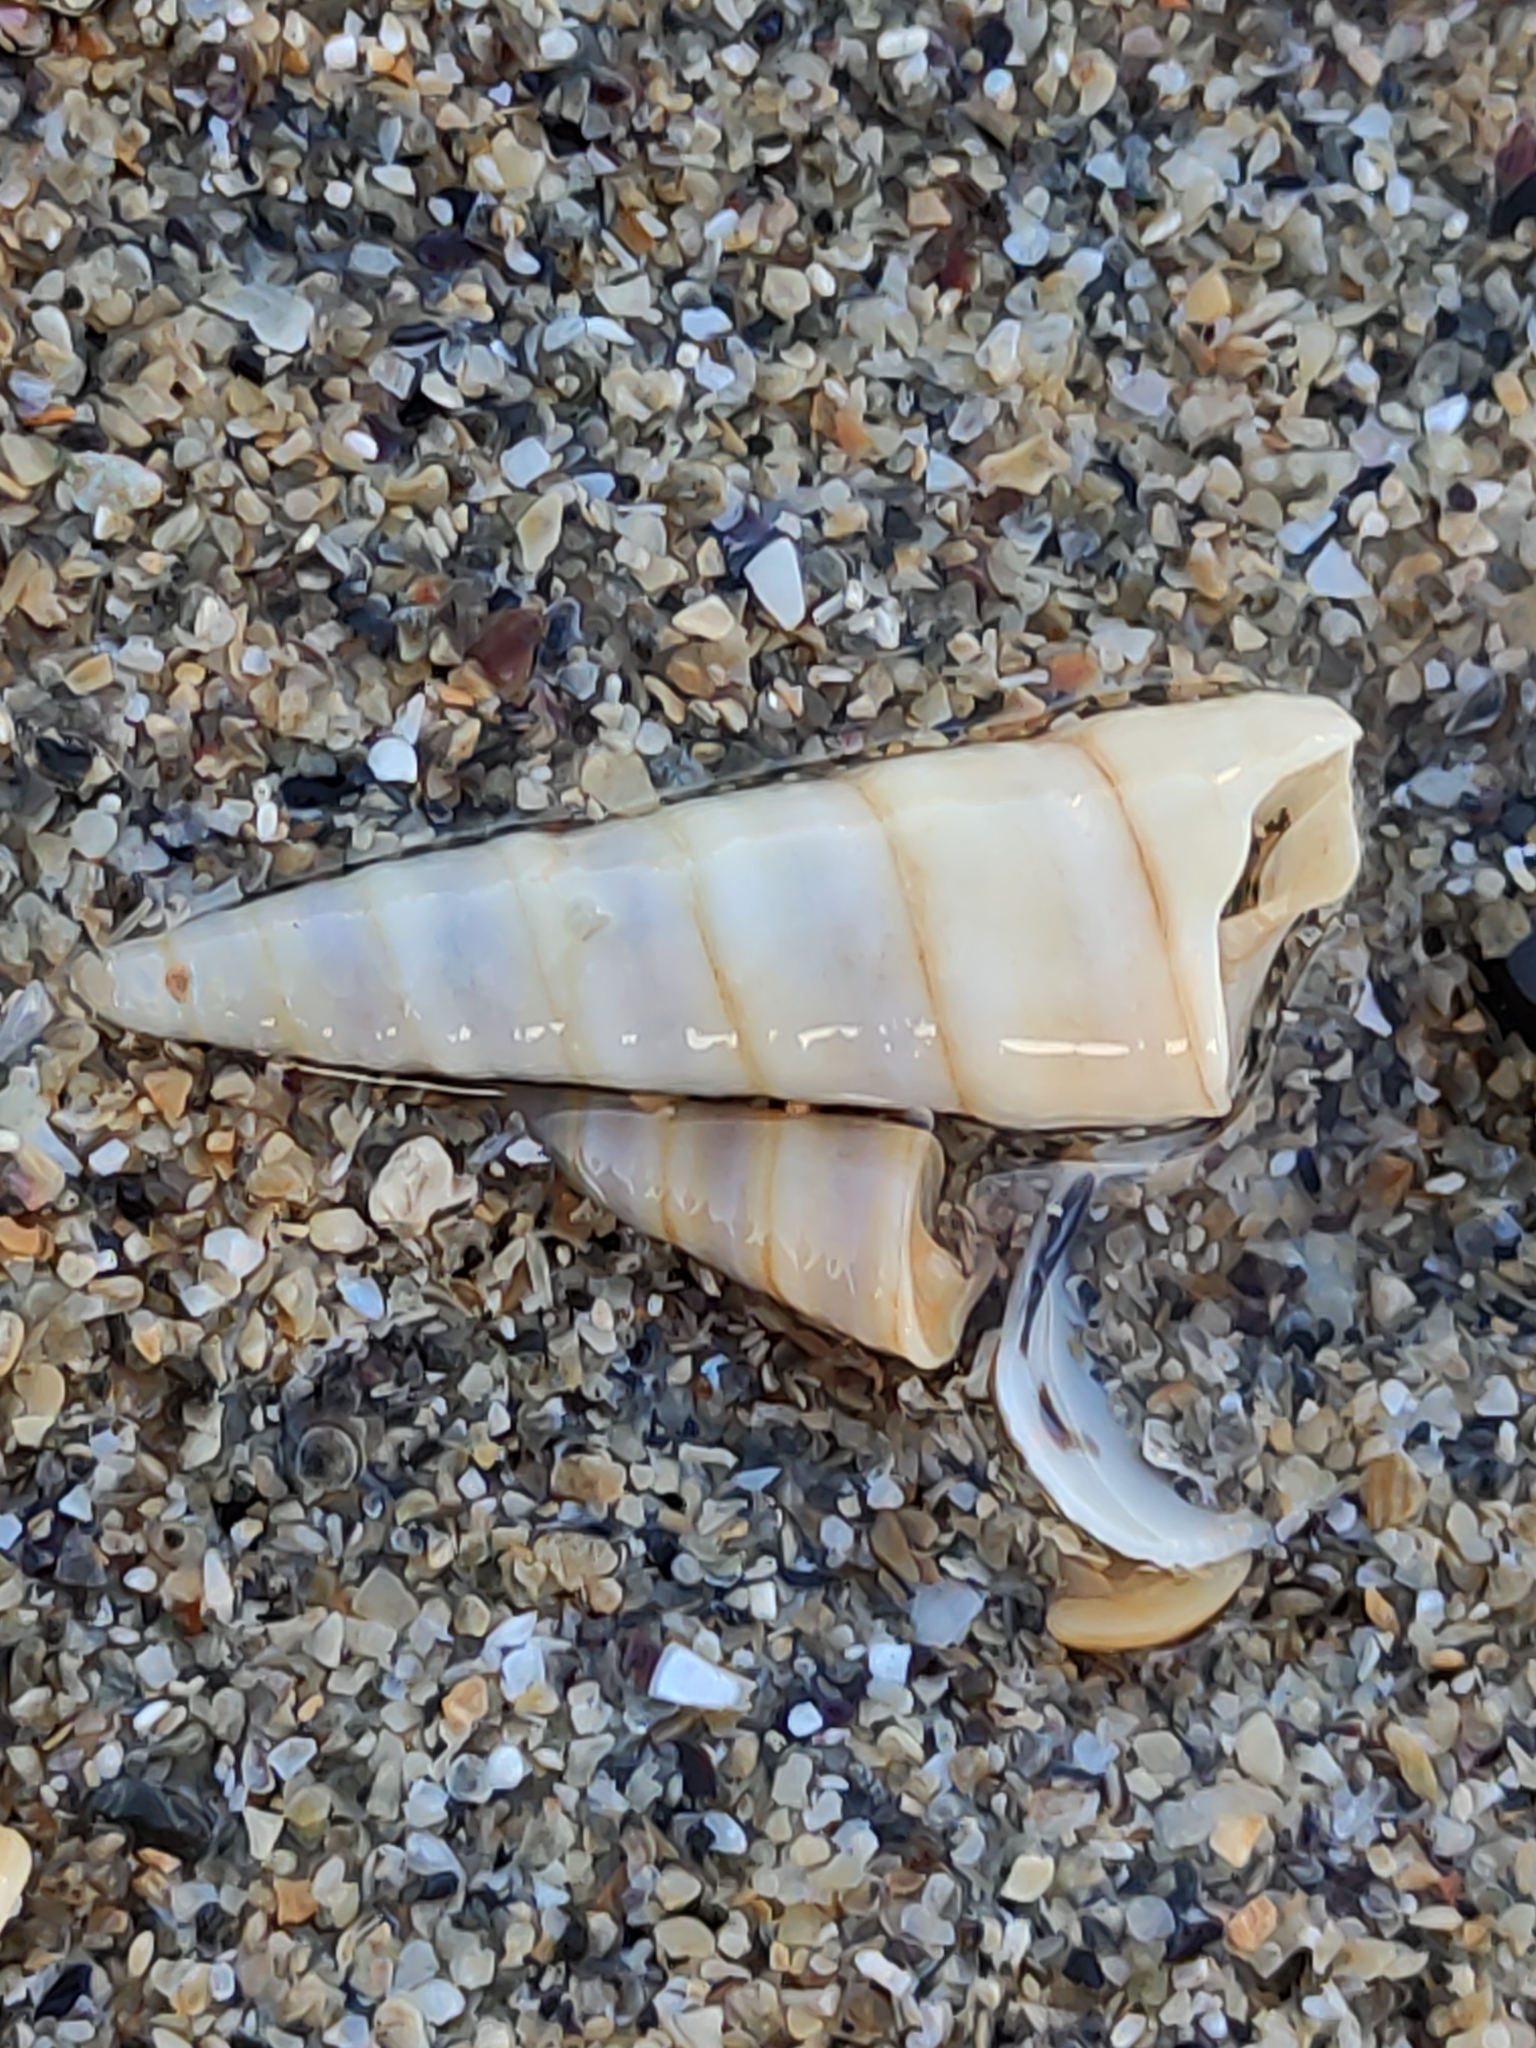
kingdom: Animalia
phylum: Mollusca
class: Gastropoda
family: Turritellidae
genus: Maoricolpus
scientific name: Maoricolpus roseus
